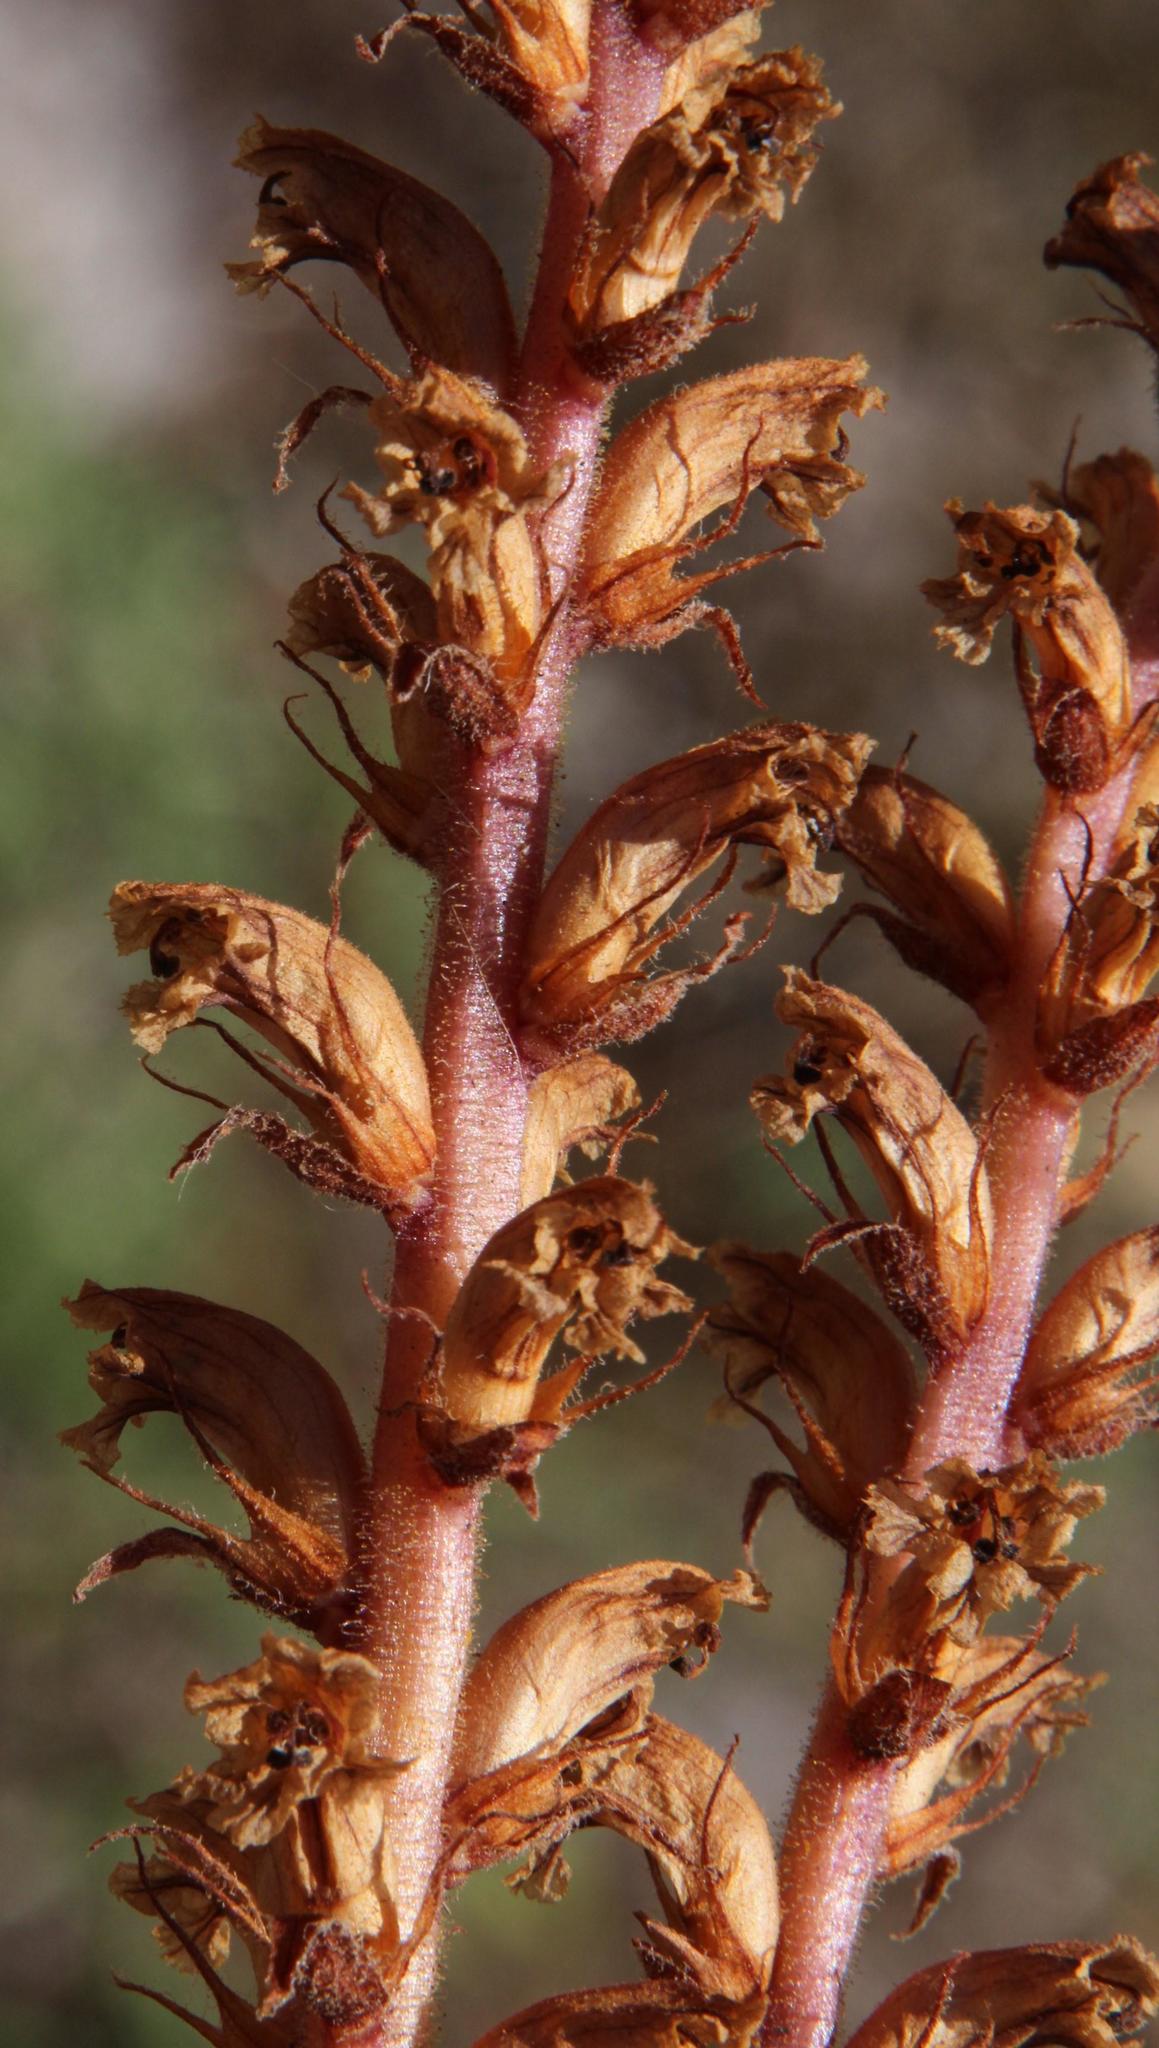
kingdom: Plantae
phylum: Tracheophyta
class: Magnoliopsida
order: Lamiales
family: Orobanchaceae
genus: Orobanche
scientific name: Orobanche minor
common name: Common broomrape
